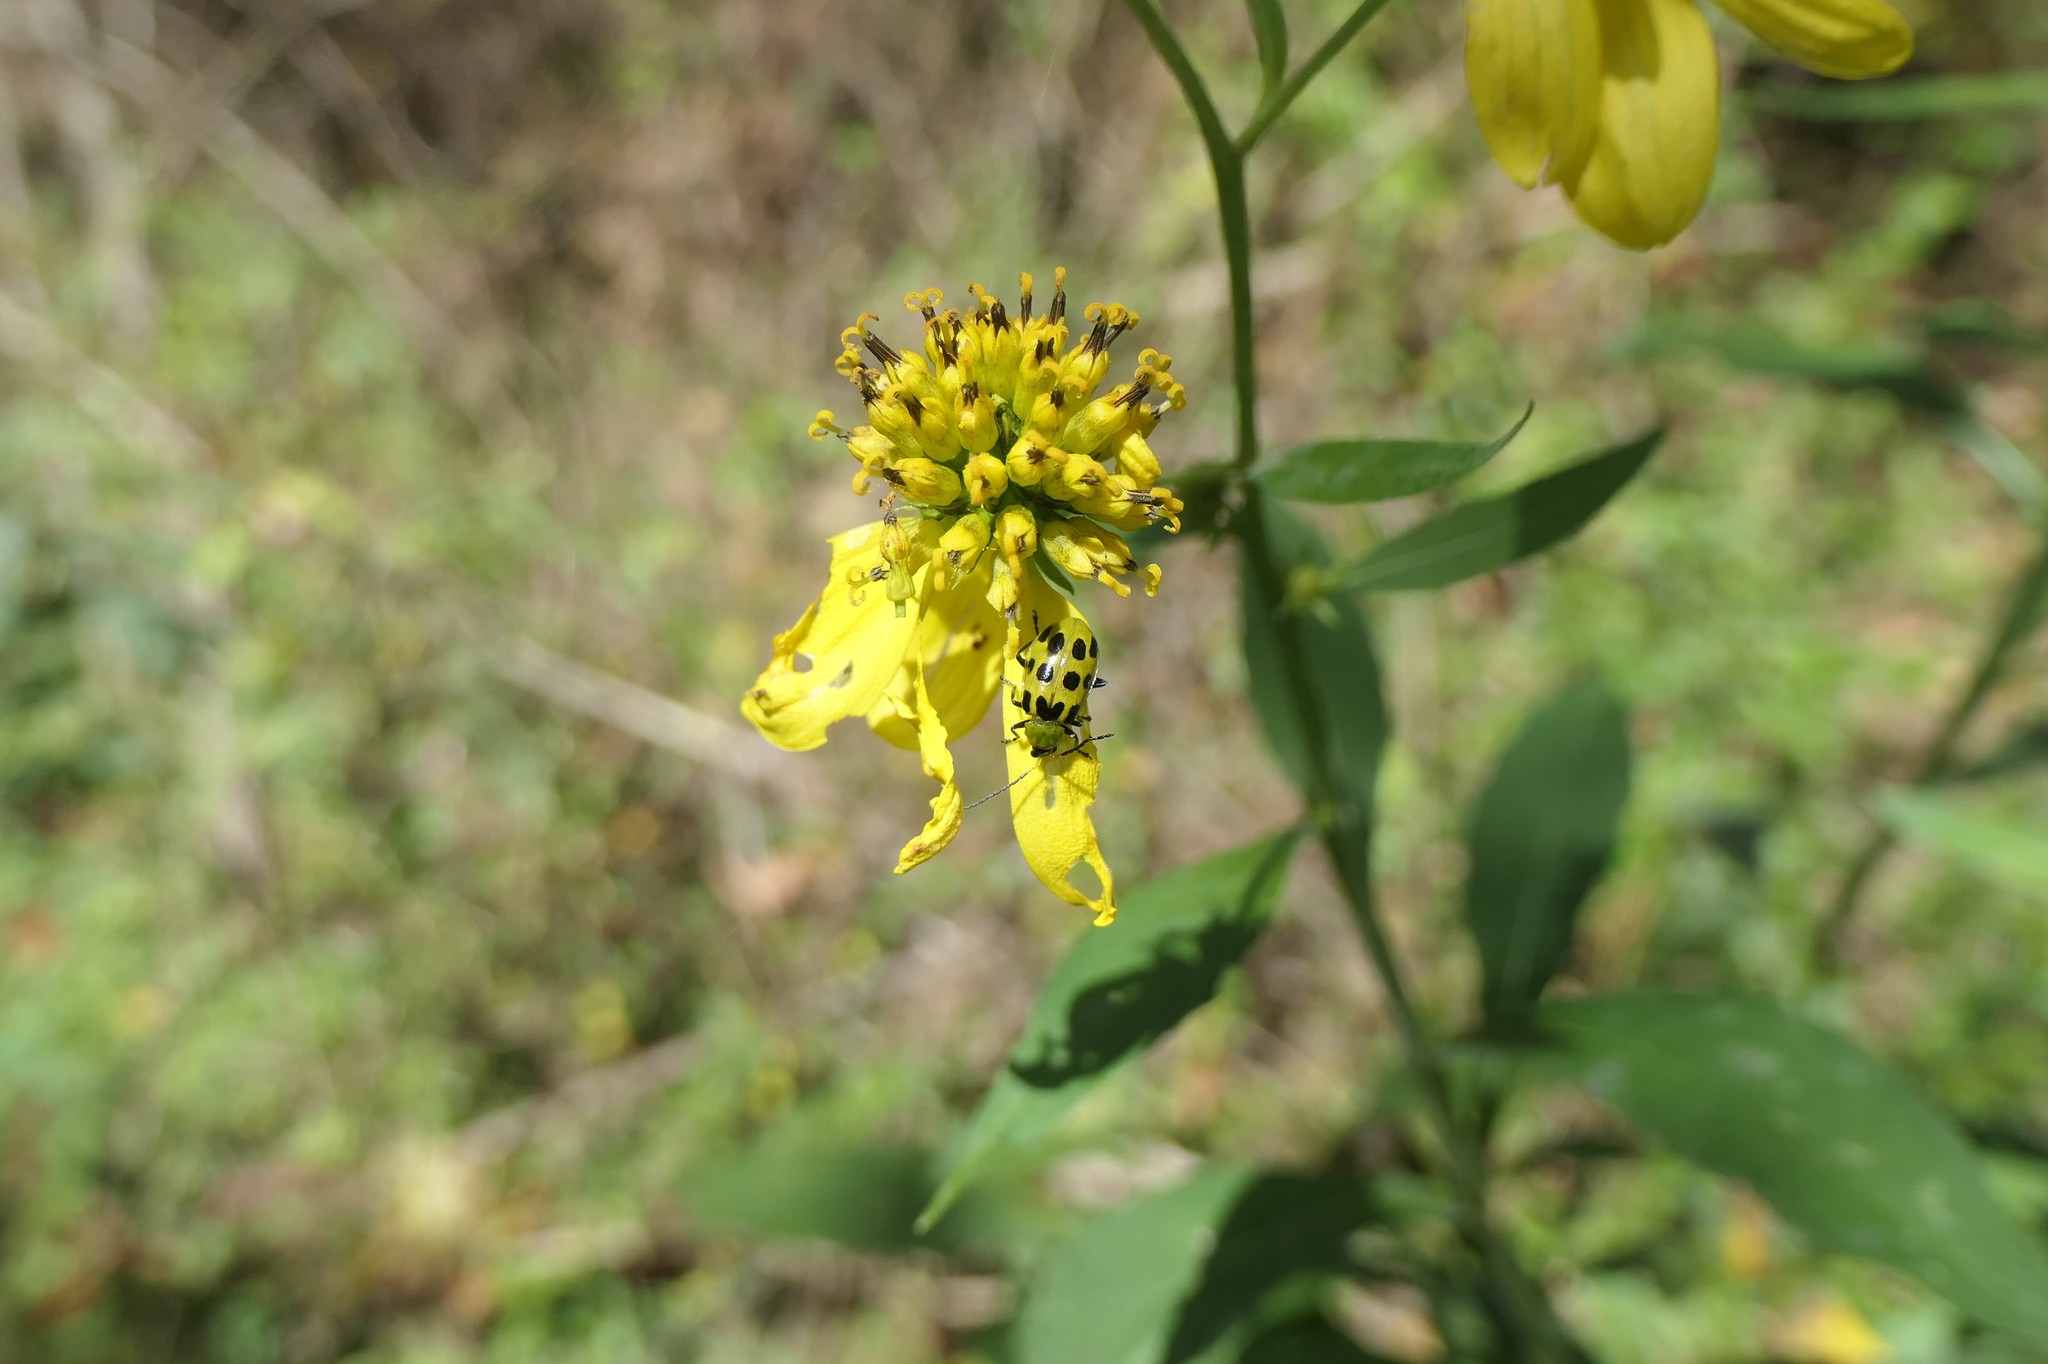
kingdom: Animalia
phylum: Arthropoda
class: Insecta
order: Coleoptera
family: Chrysomelidae
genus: Diabrotica
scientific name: Diabrotica undecimpunctata
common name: Spotted cucumber beetle
